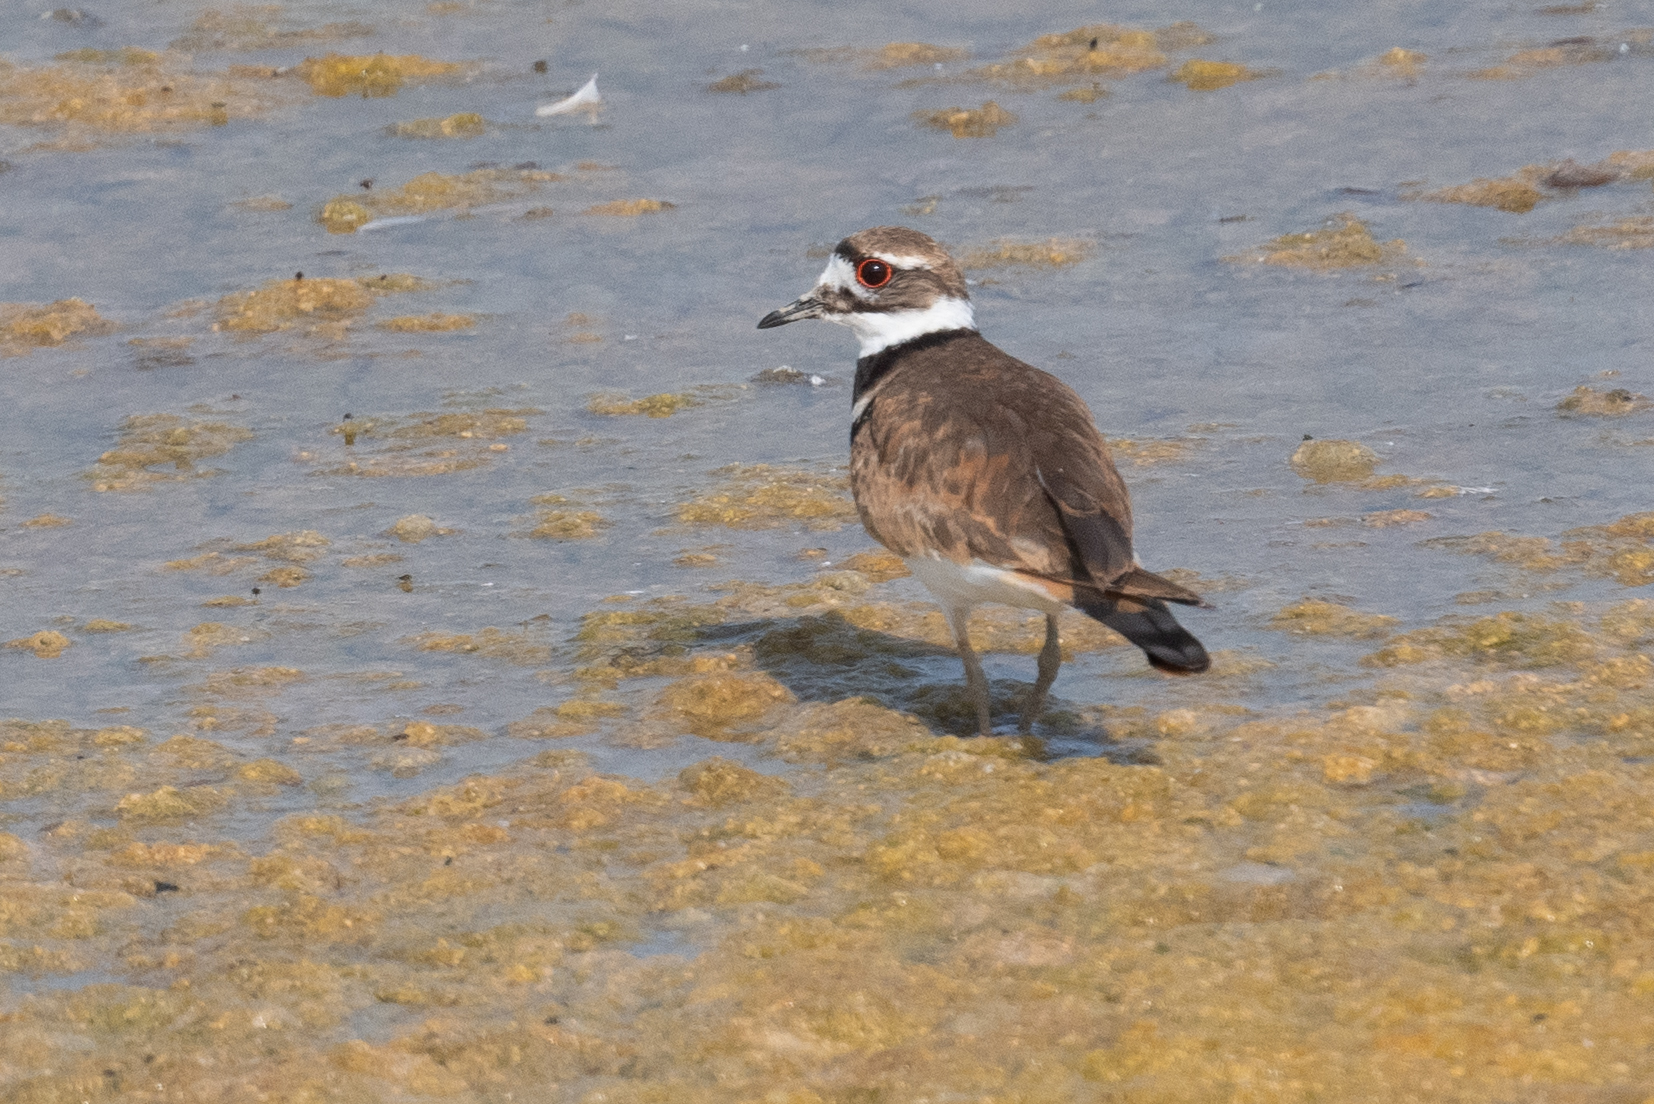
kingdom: Animalia
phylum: Chordata
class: Aves
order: Charadriiformes
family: Charadriidae
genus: Charadrius
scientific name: Charadrius vociferus
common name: Killdeer
